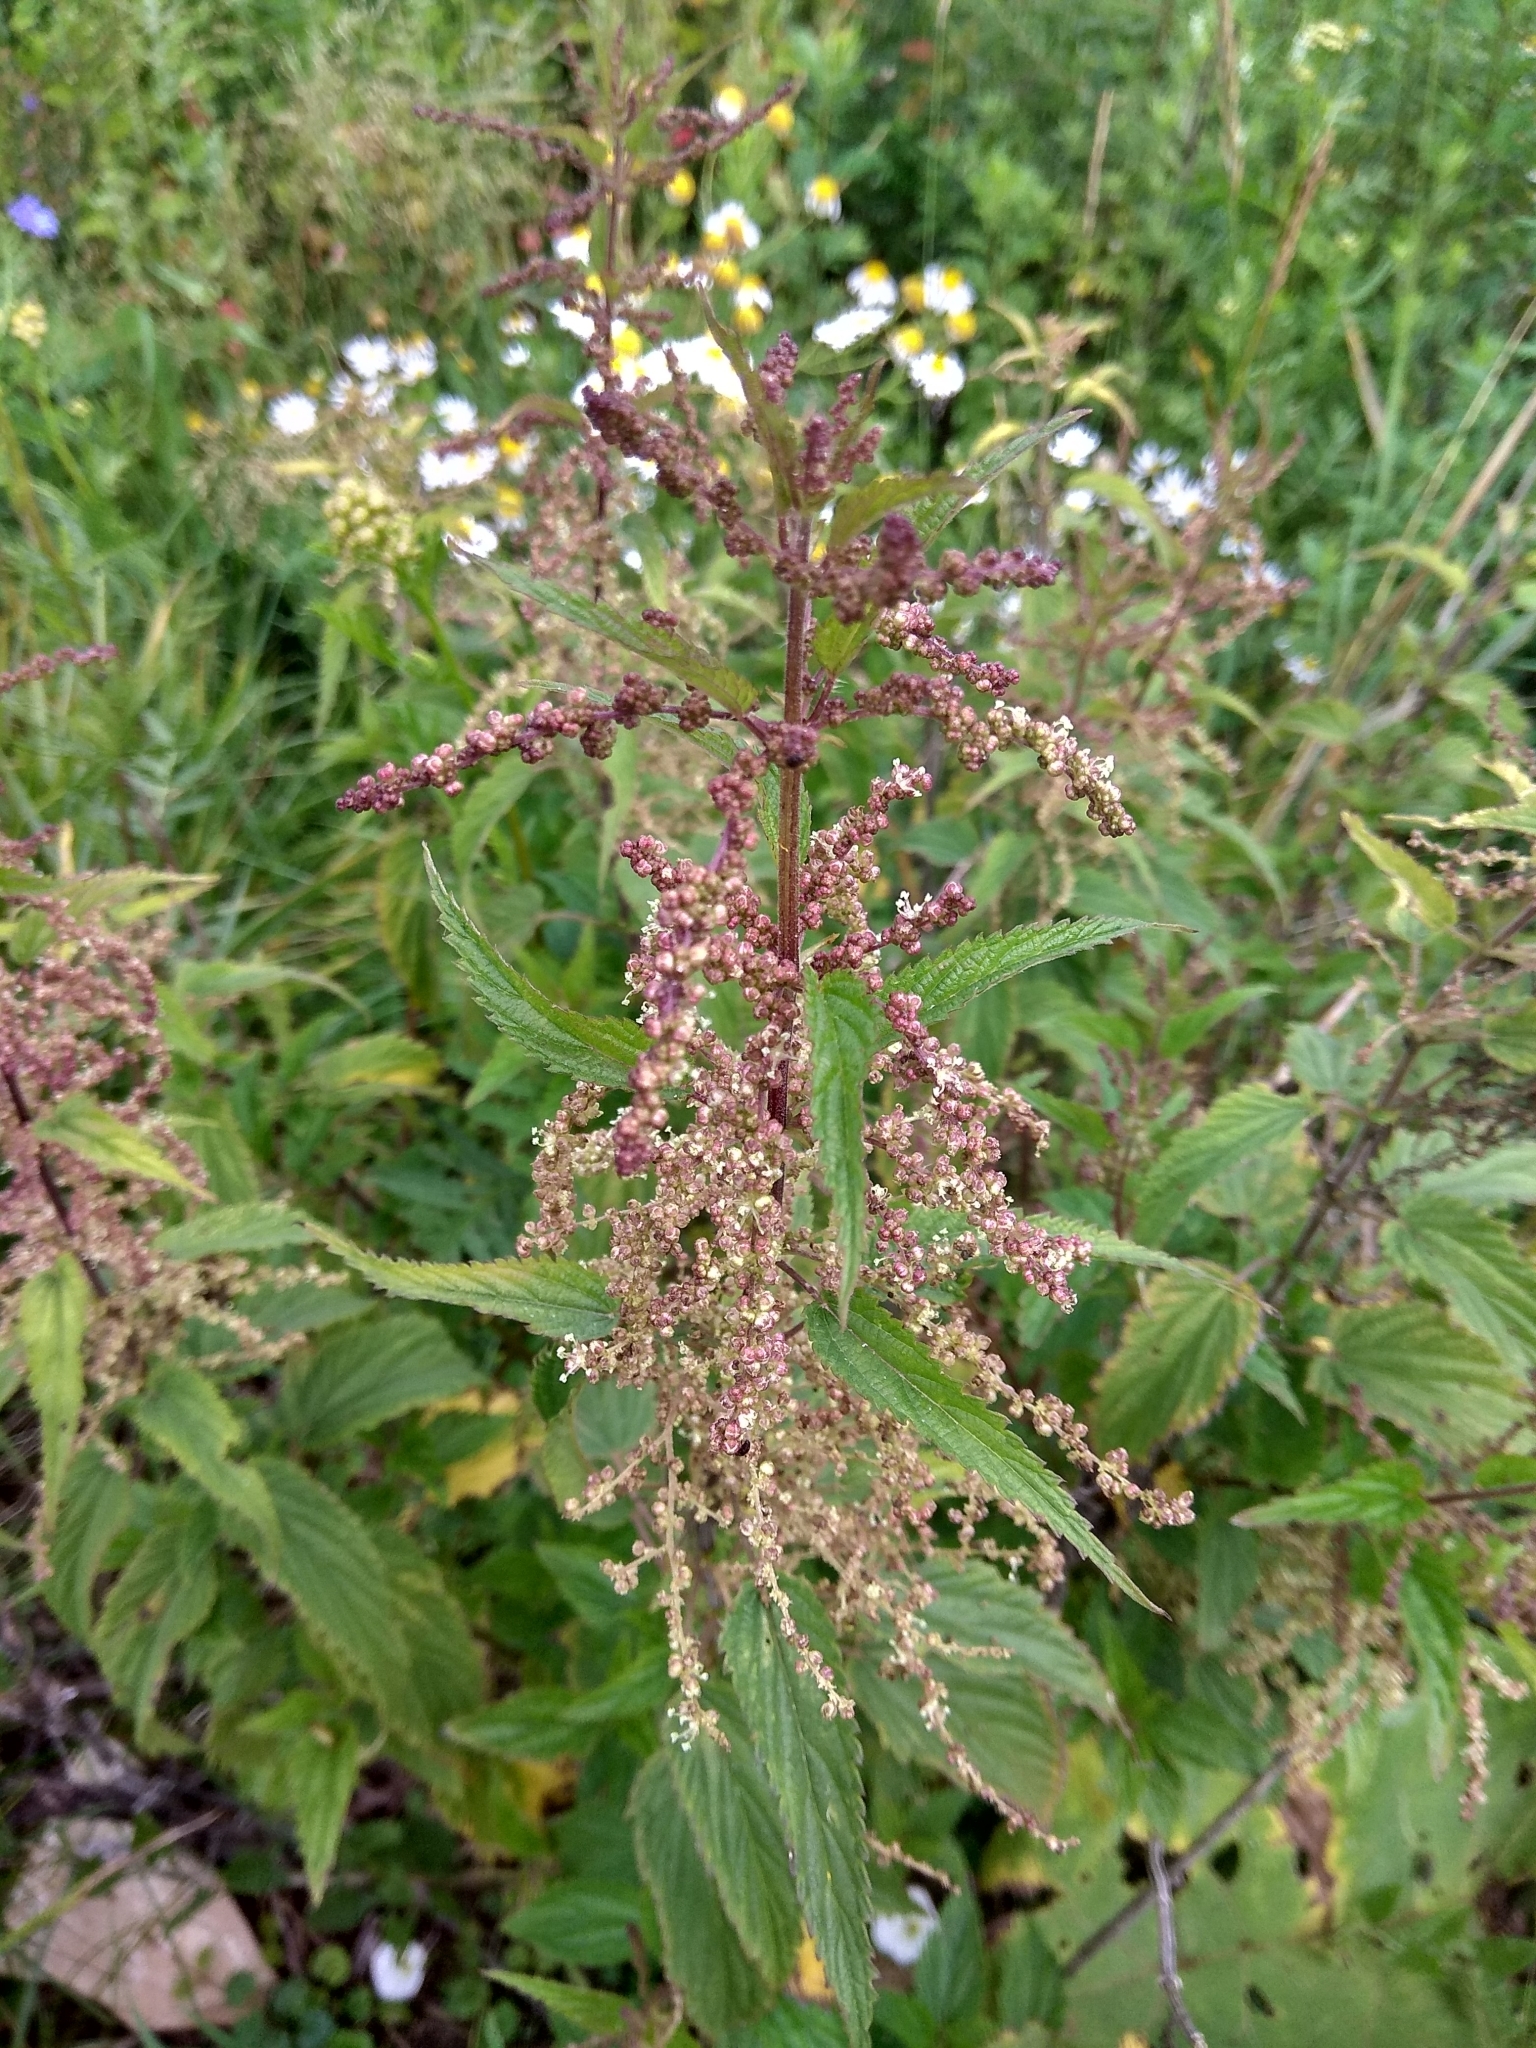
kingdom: Plantae
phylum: Tracheophyta
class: Magnoliopsida
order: Rosales
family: Urticaceae
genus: Urtica
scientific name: Urtica dioica
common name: Common nettle
